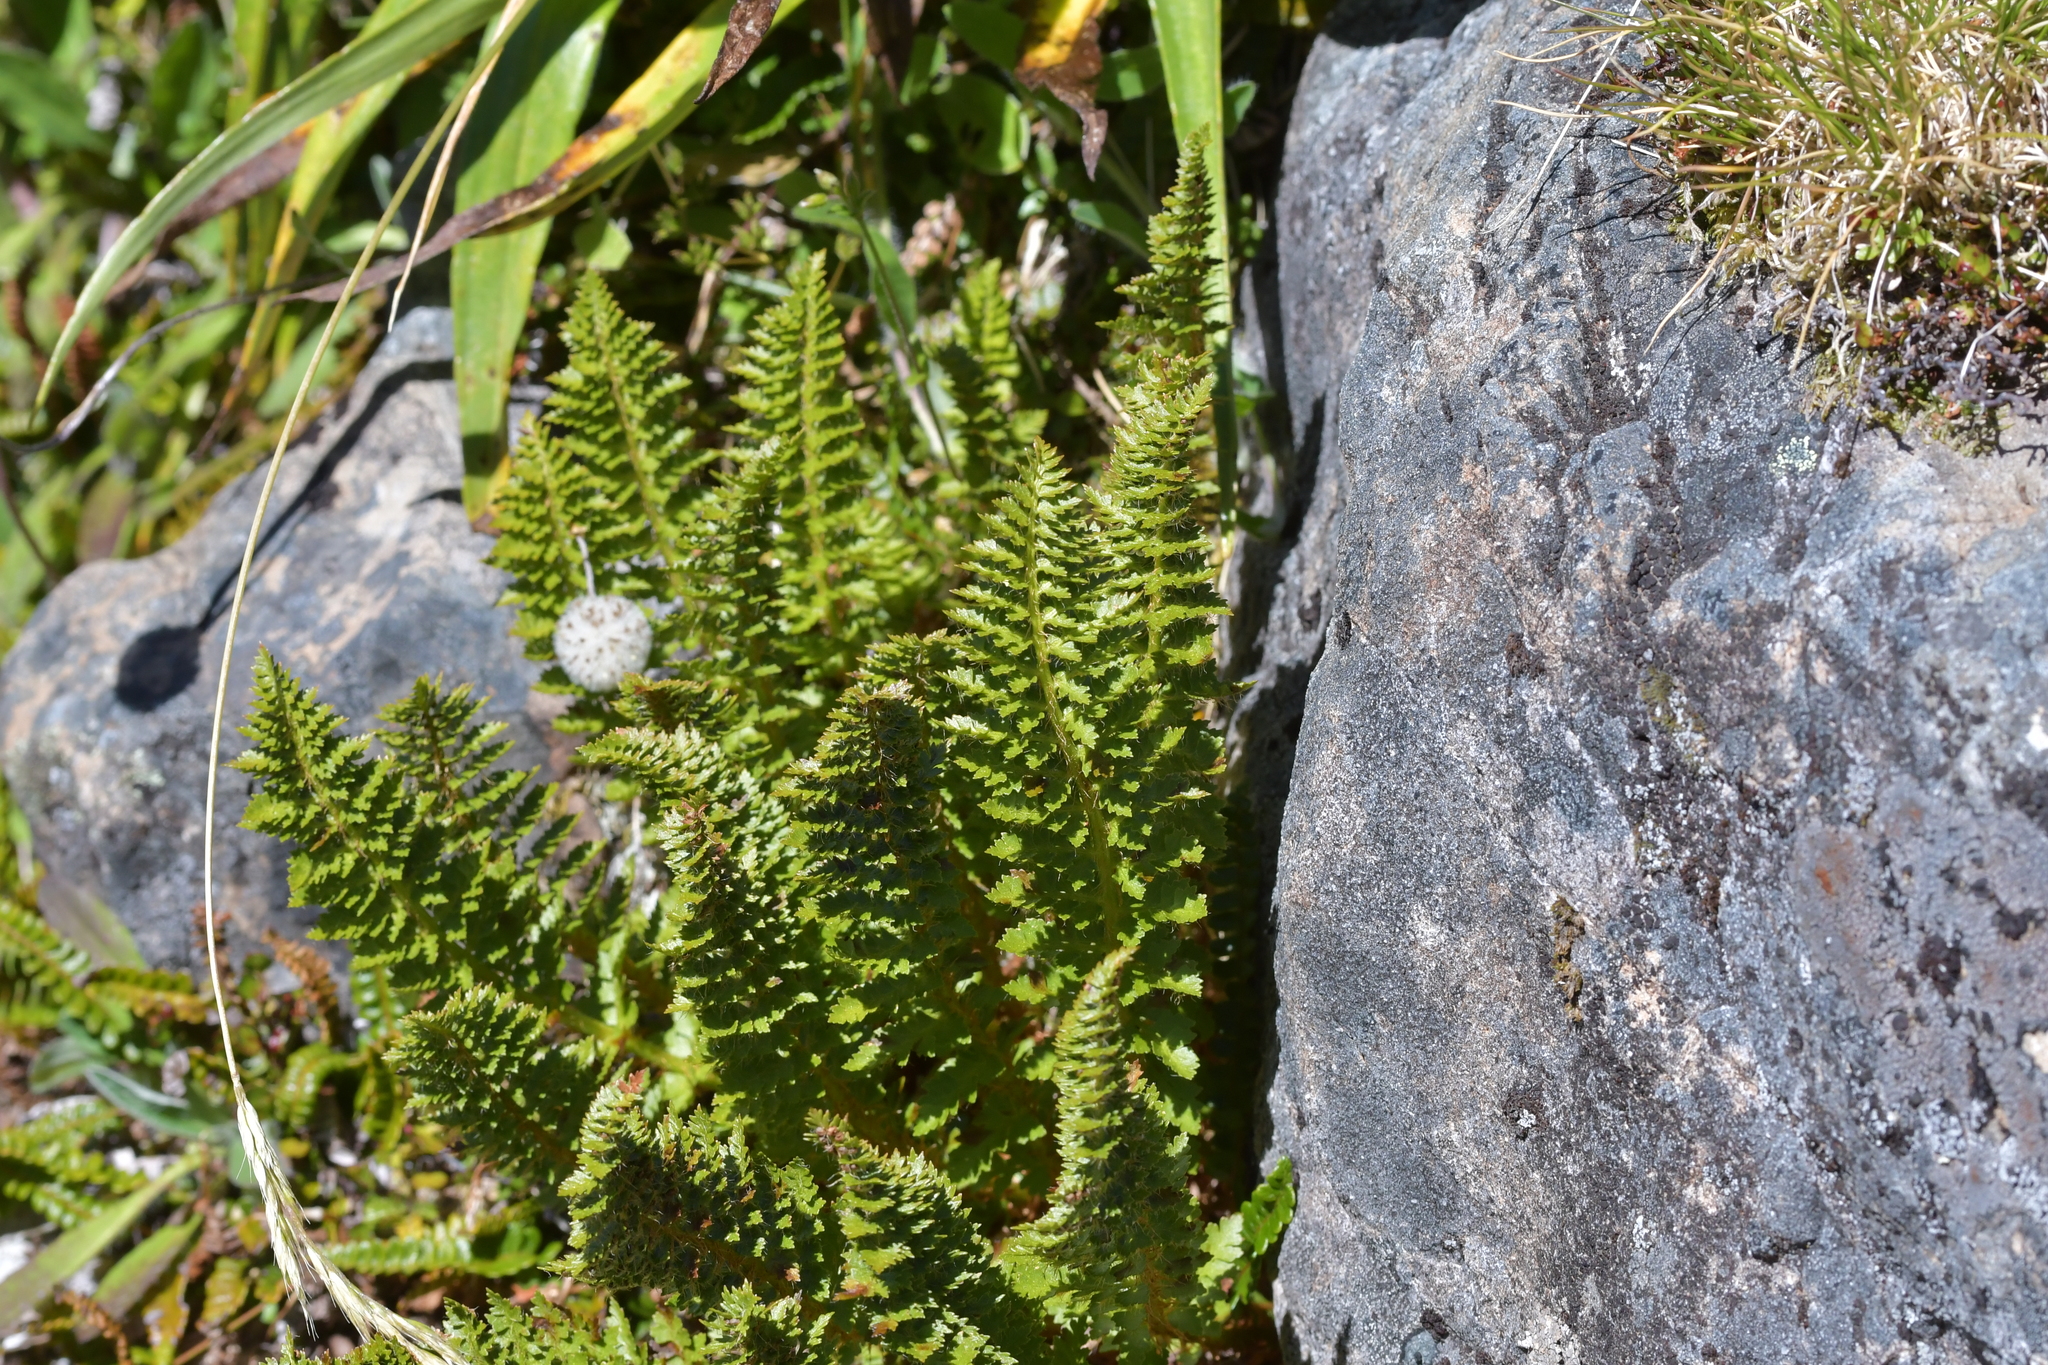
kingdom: Plantae
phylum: Tracheophyta
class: Polypodiopsida
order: Polypodiales
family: Dryopteridaceae
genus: Polystichum
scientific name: Polystichum cystostegia
